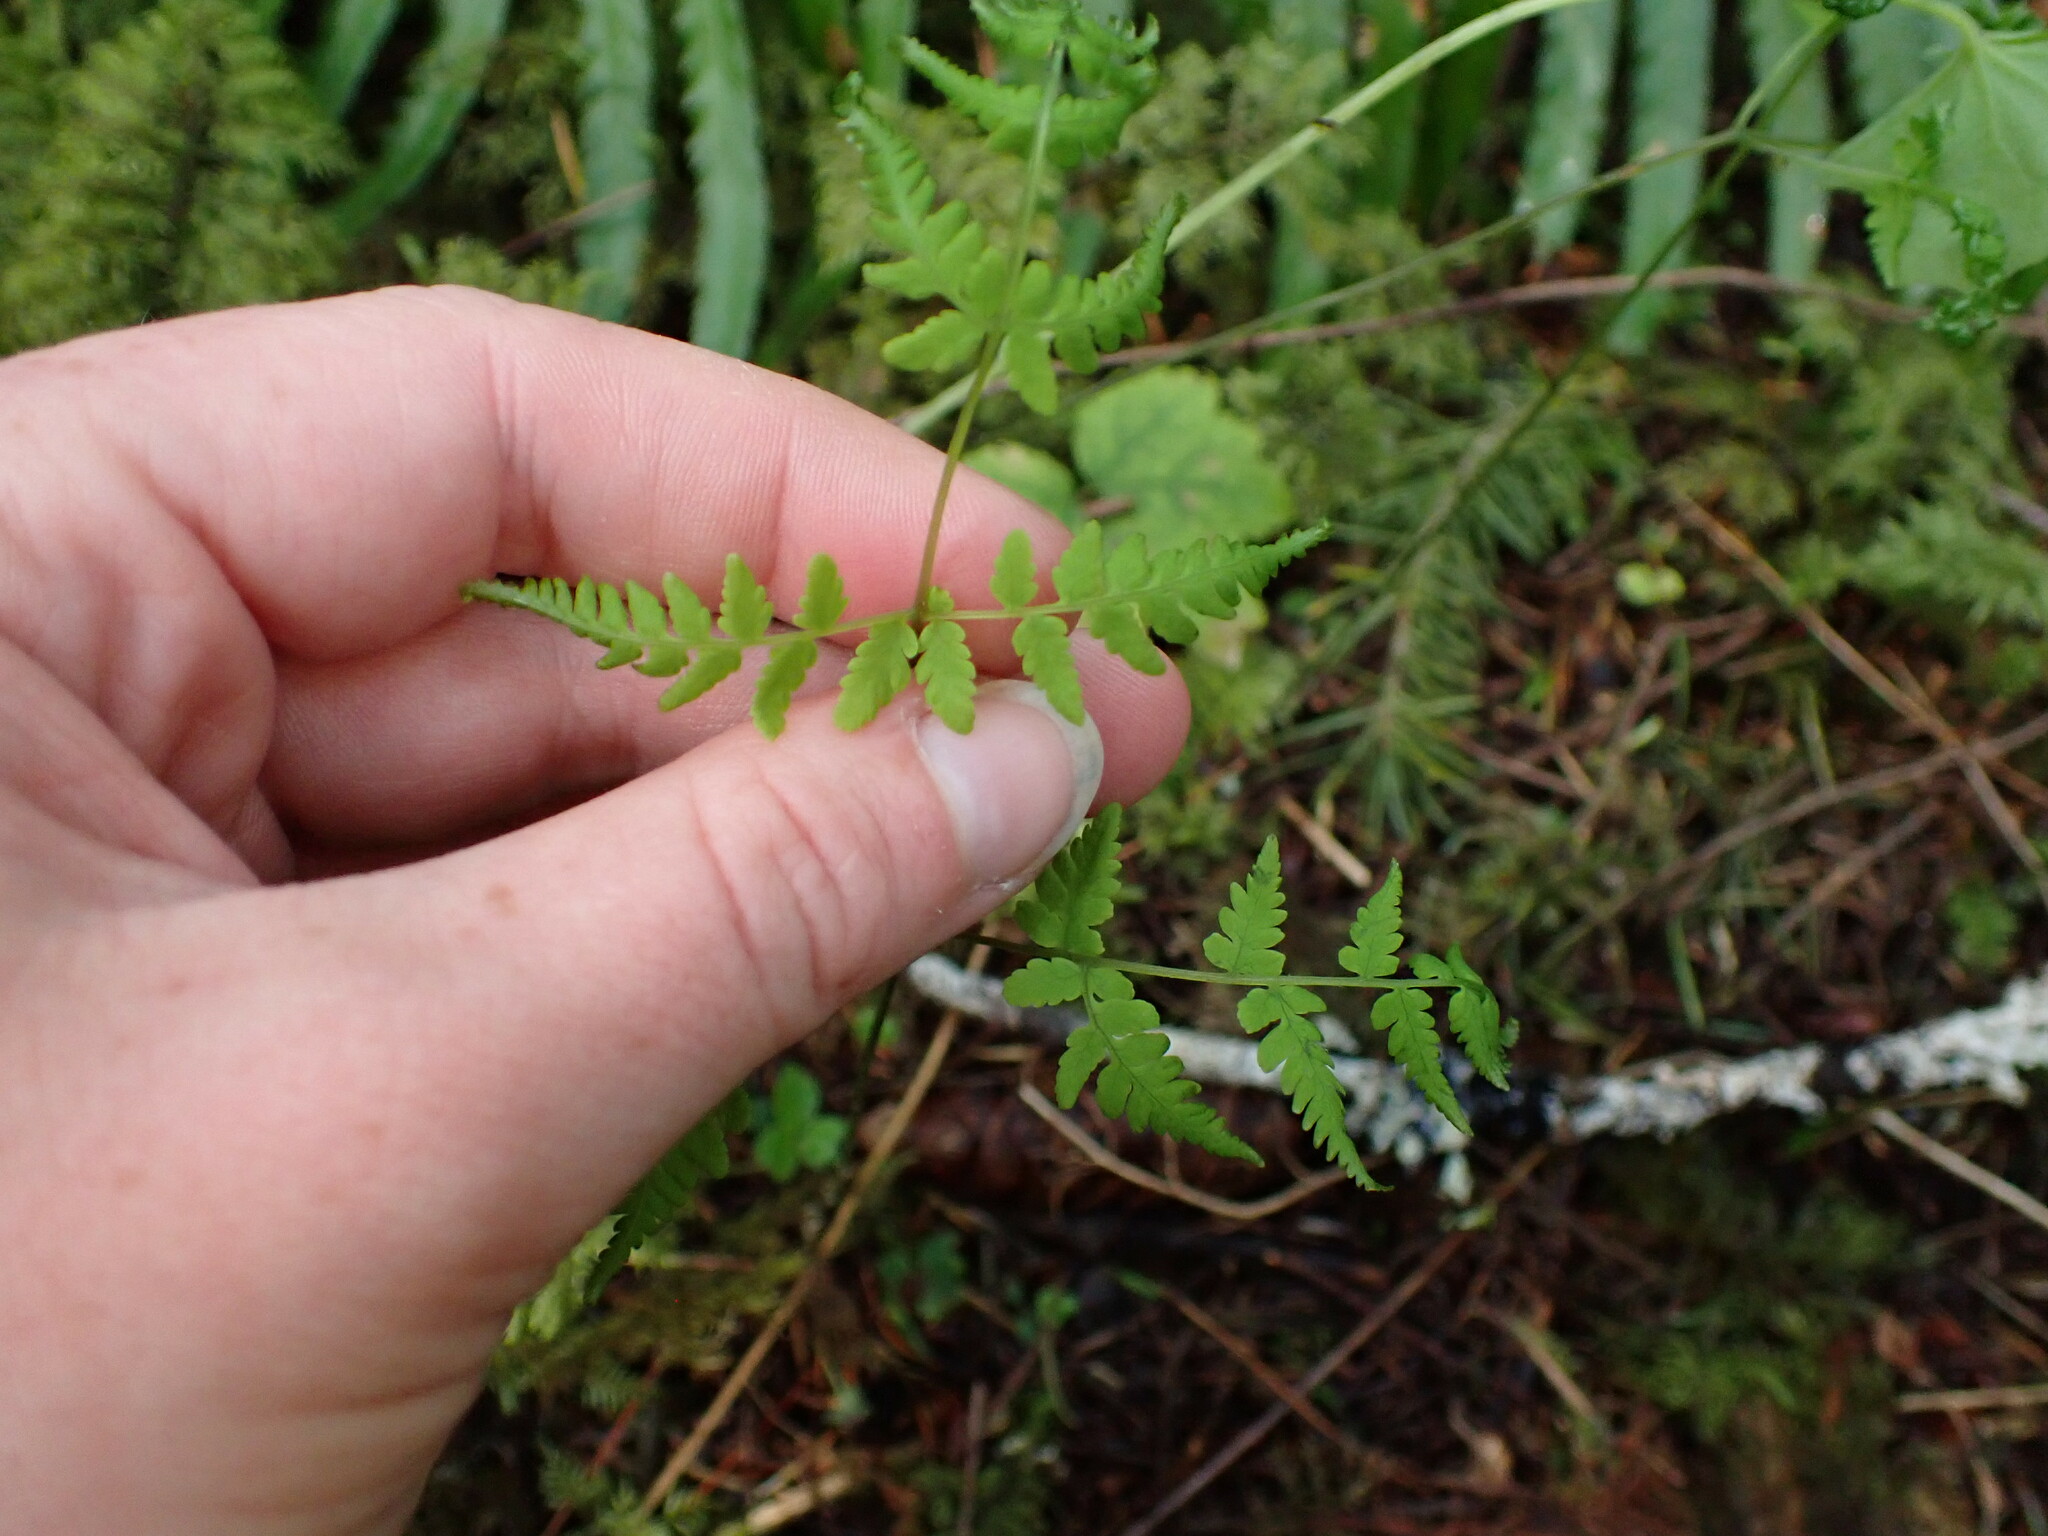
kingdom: Plantae
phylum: Tracheophyta
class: Polypodiopsida
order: Polypodiales
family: Cystopteridaceae
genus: Gymnocarpium
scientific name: Gymnocarpium disjunctum
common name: Western oak fern
